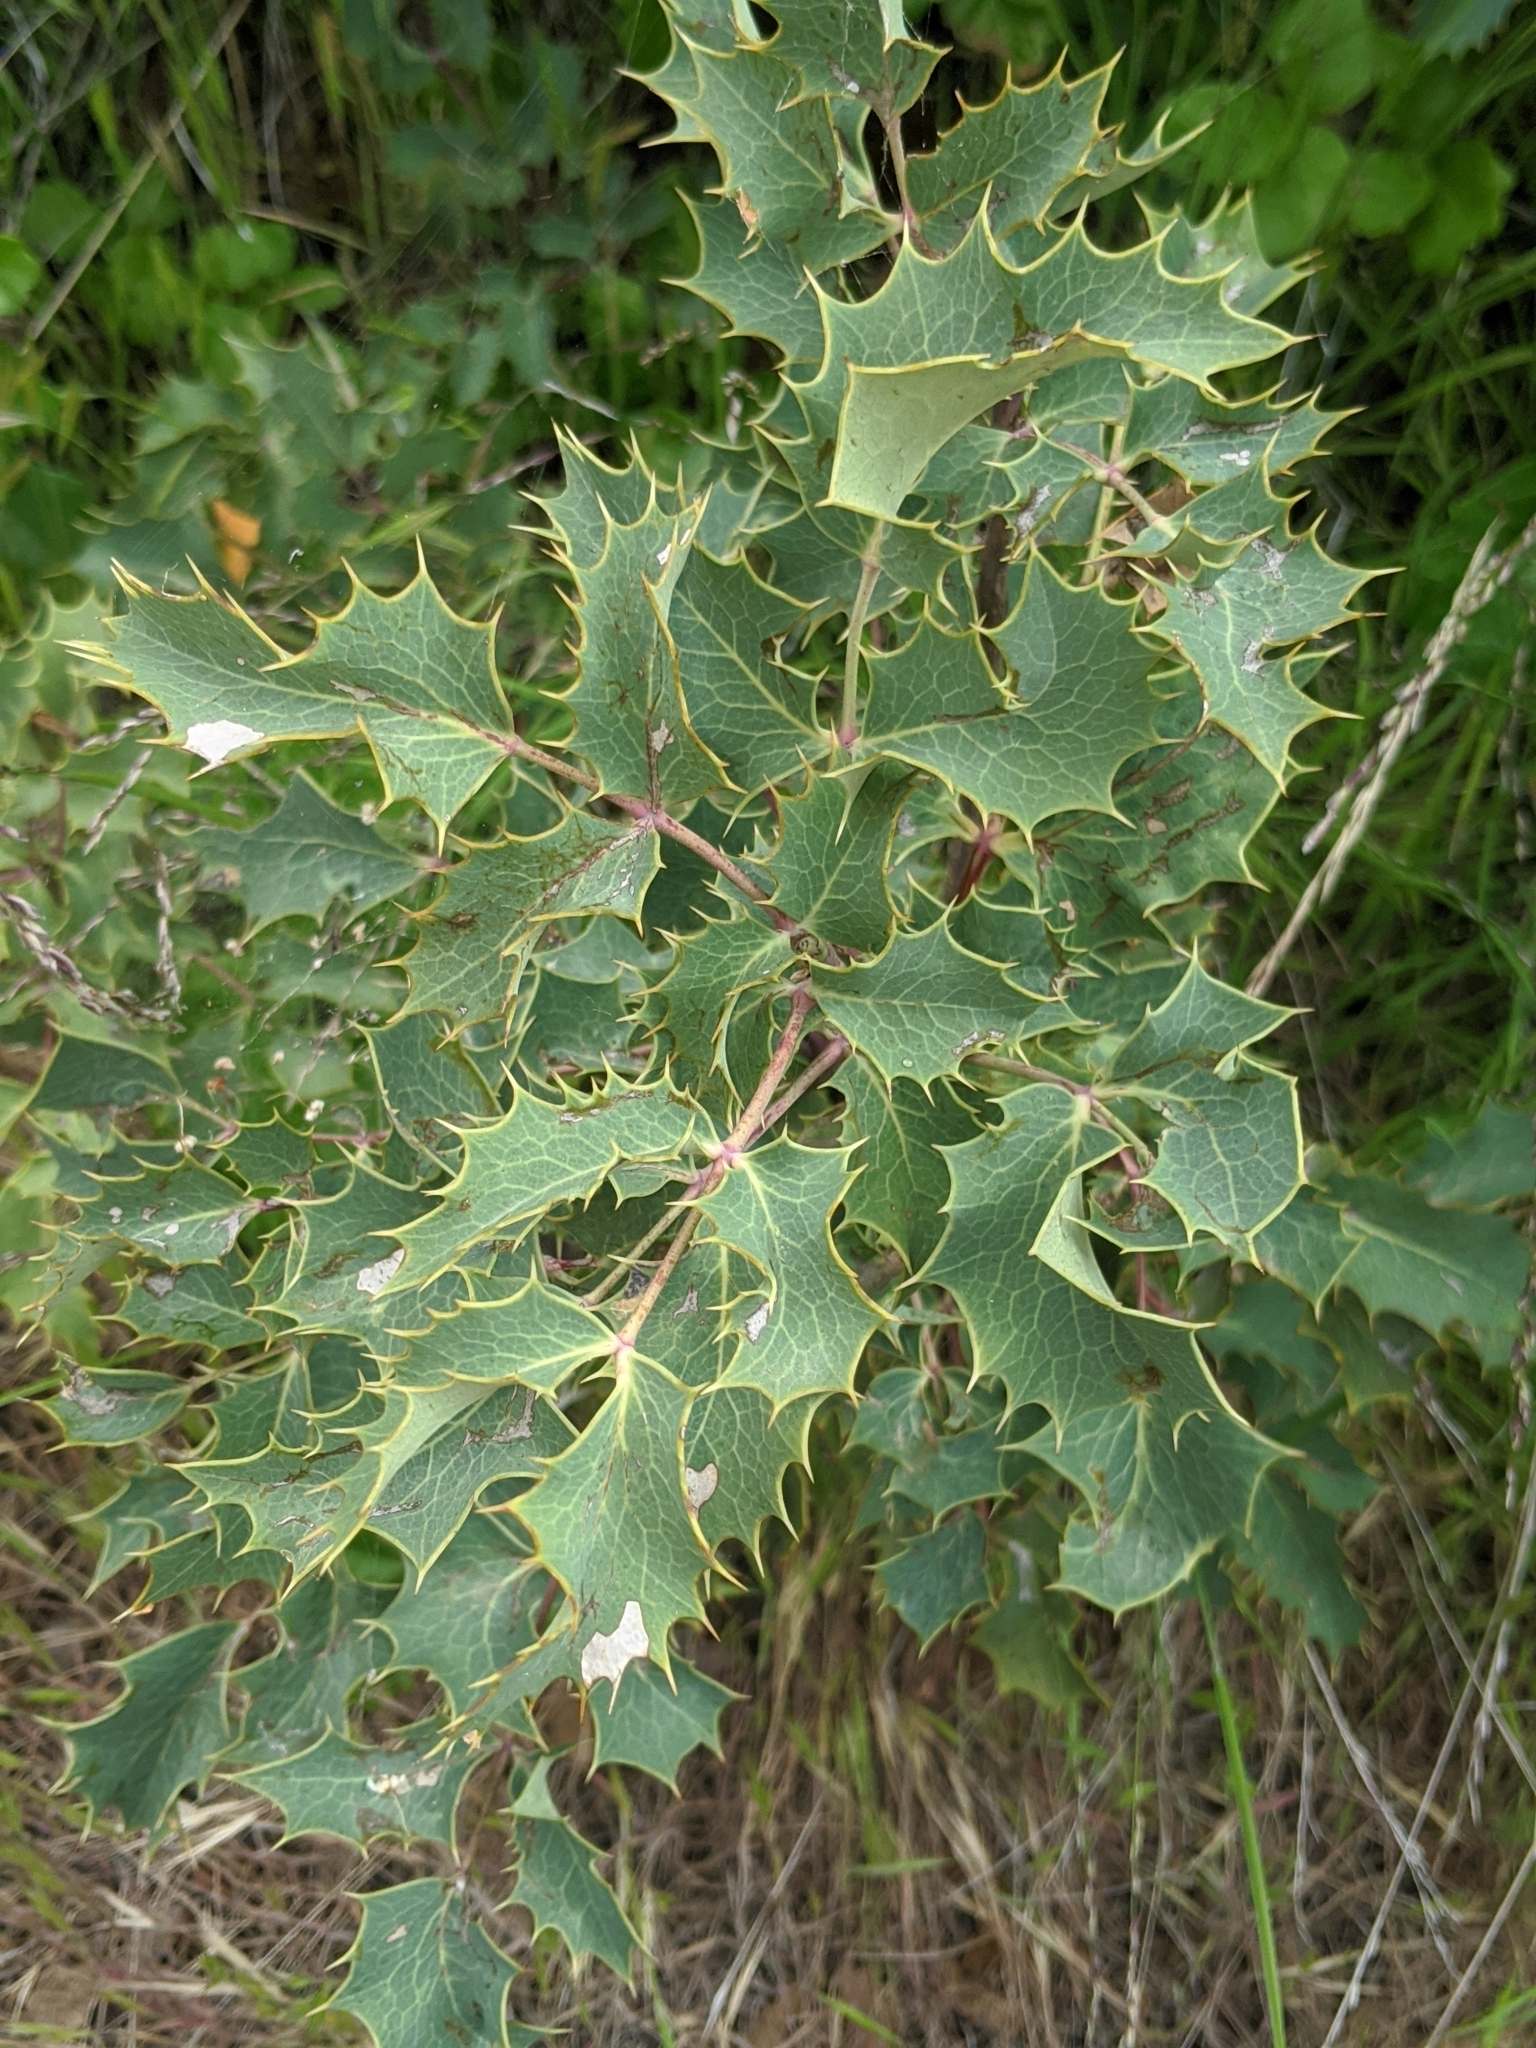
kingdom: Plantae
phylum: Tracheophyta
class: Magnoliopsida
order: Ranunculales
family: Berberidaceae
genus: Mahonia
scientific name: Mahonia dictyota
